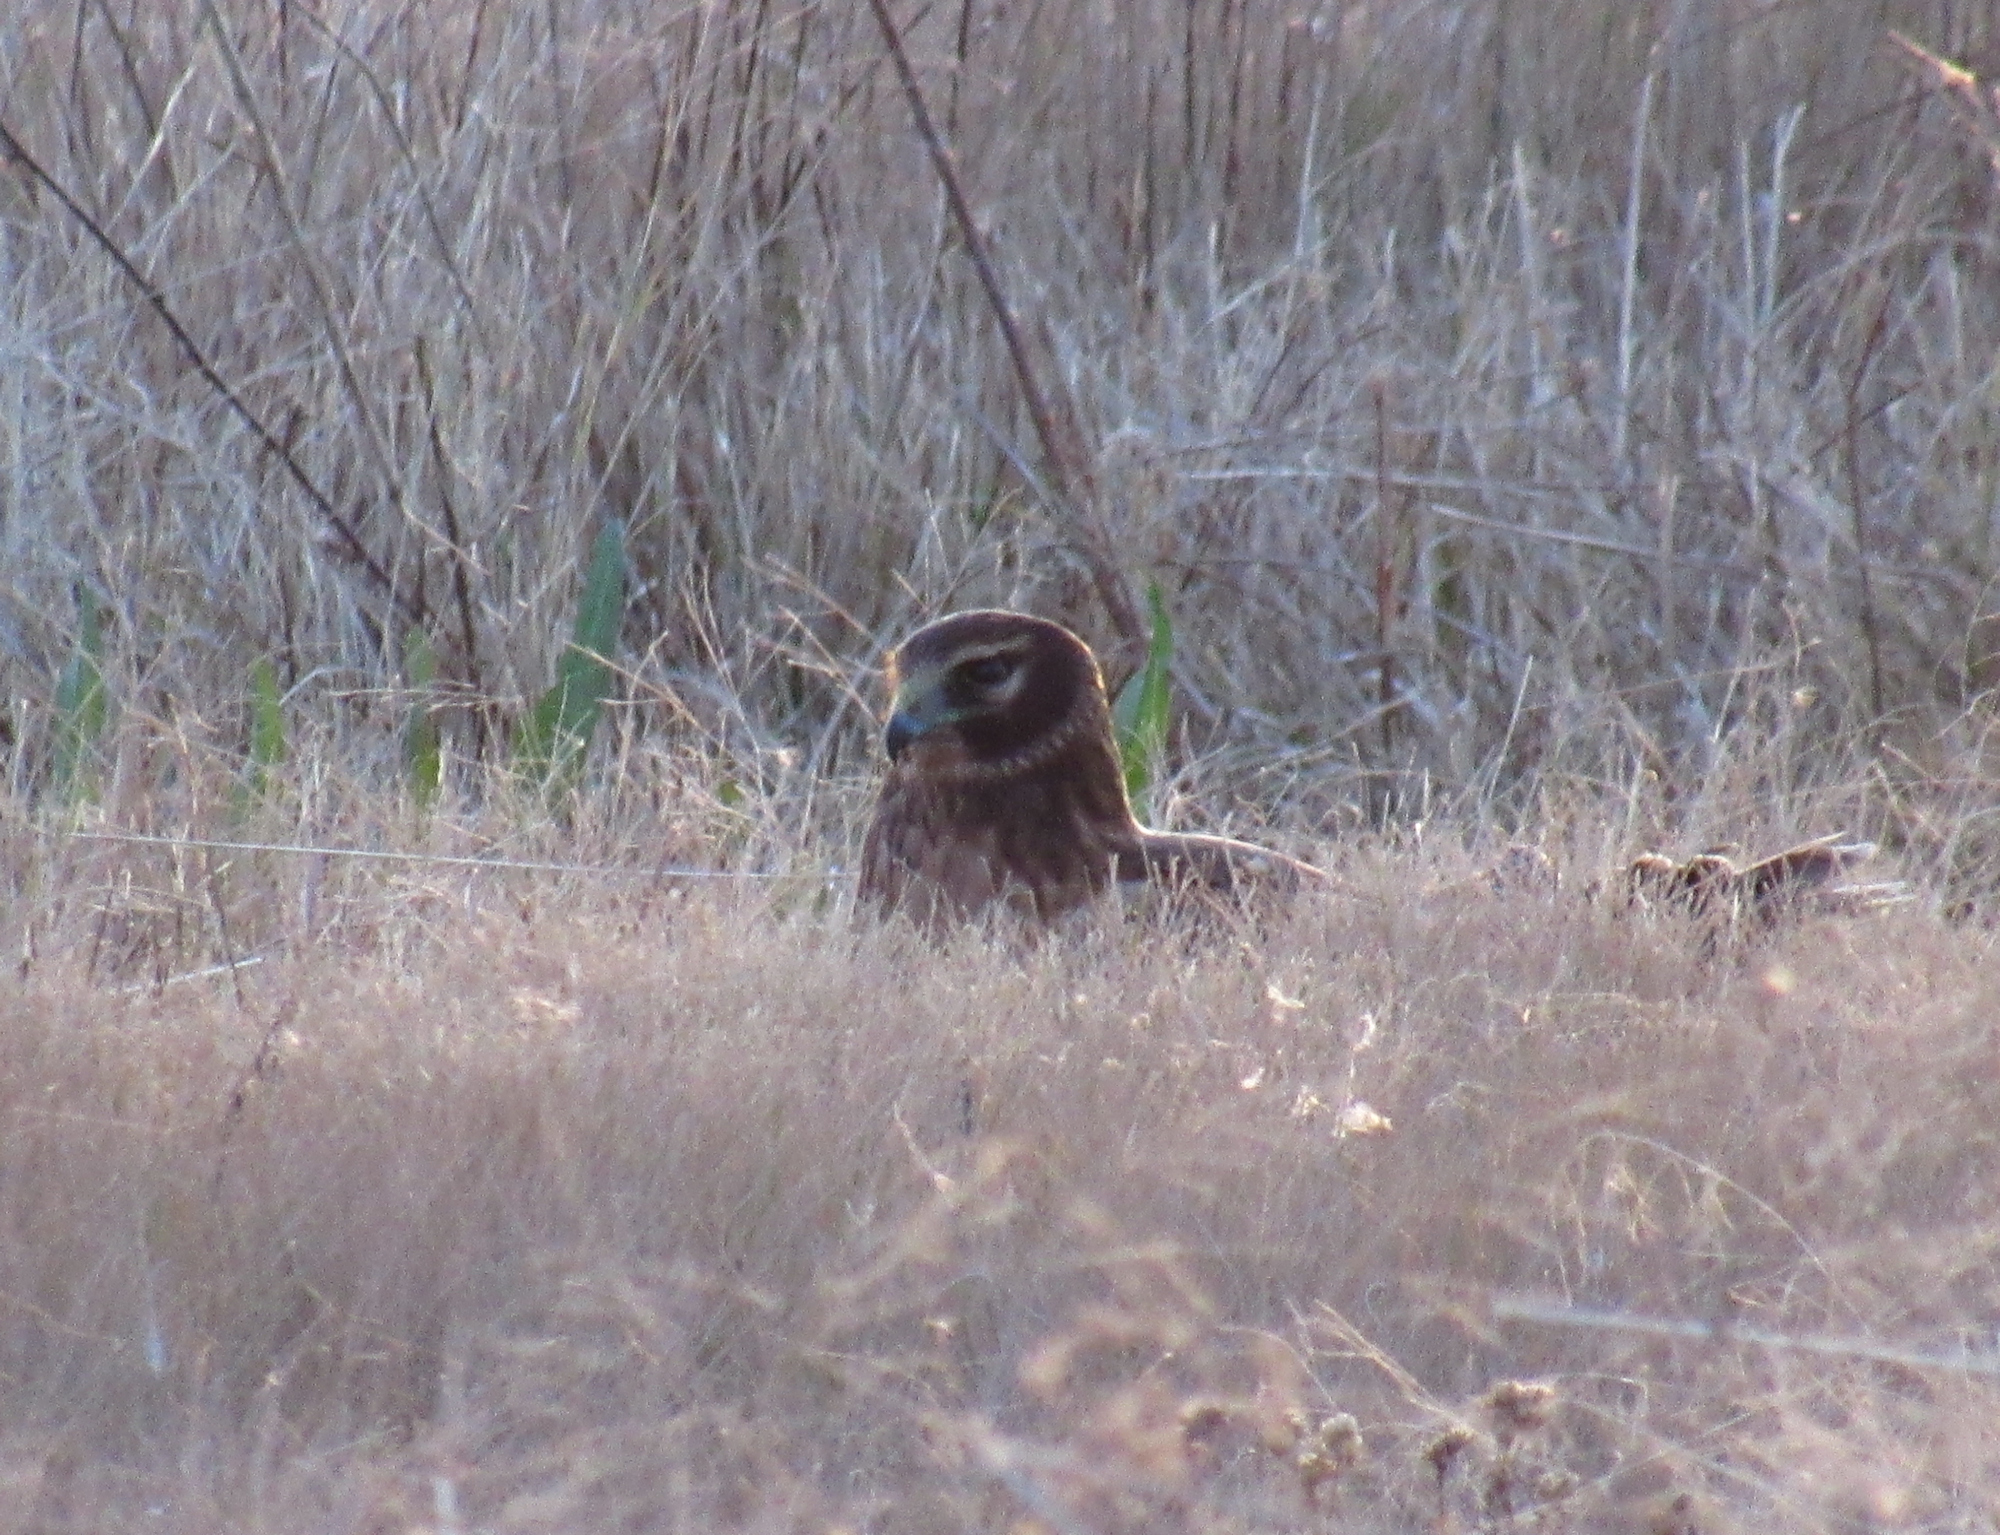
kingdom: Animalia
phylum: Chordata
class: Aves
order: Accipitriformes
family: Accipitridae
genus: Circus
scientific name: Circus cyaneus
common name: Hen harrier
